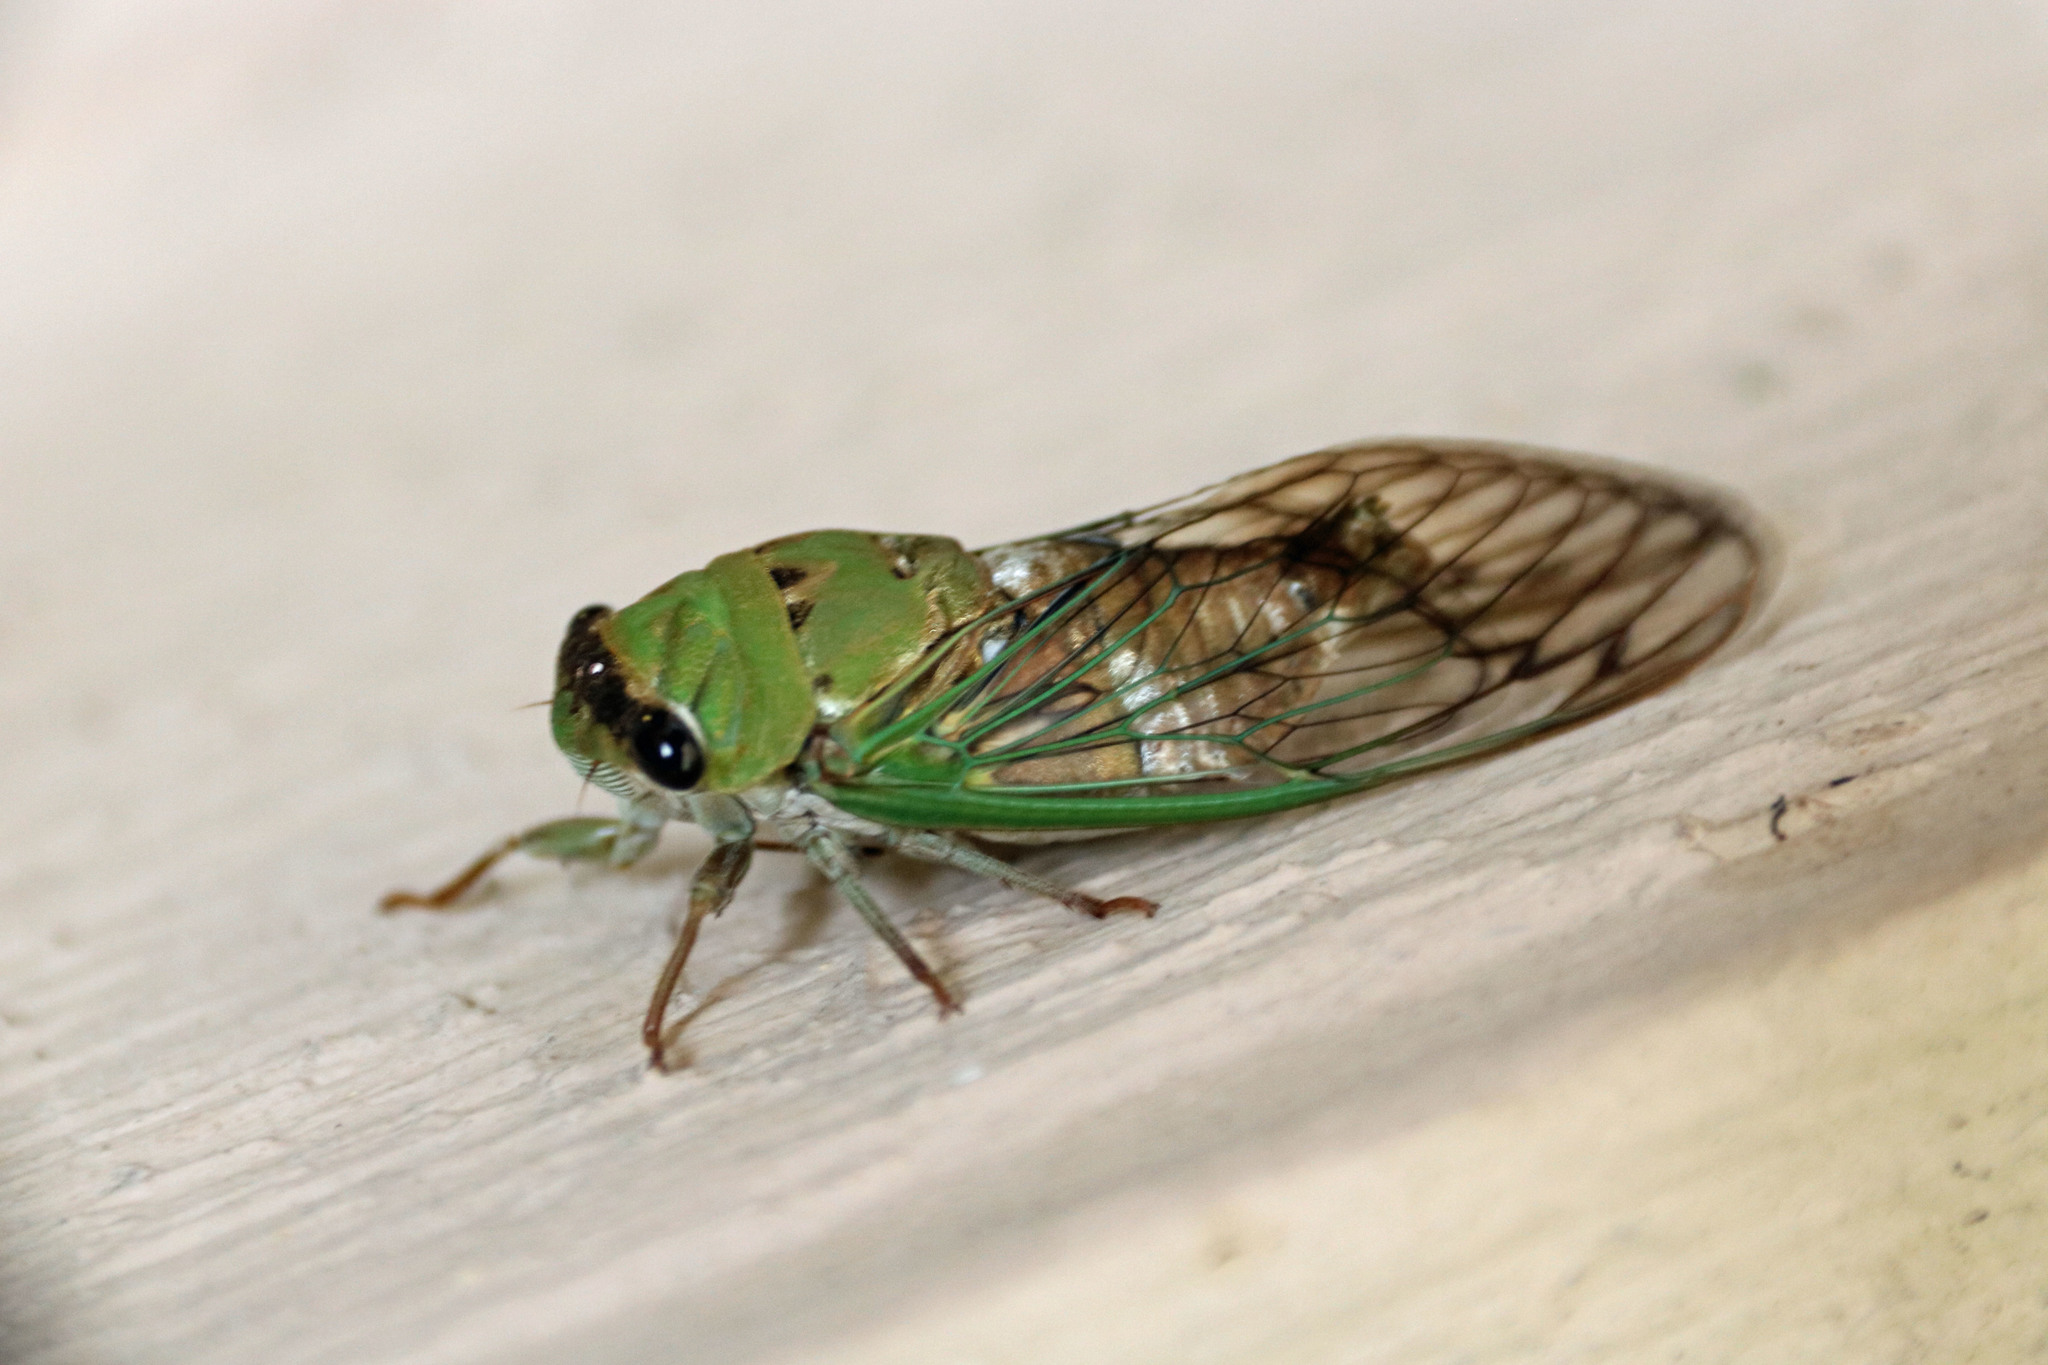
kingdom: Animalia
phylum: Arthropoda
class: Insecta
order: Hemiptera
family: Cicadidae
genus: Neotibicen
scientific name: Neotibicen superbus
